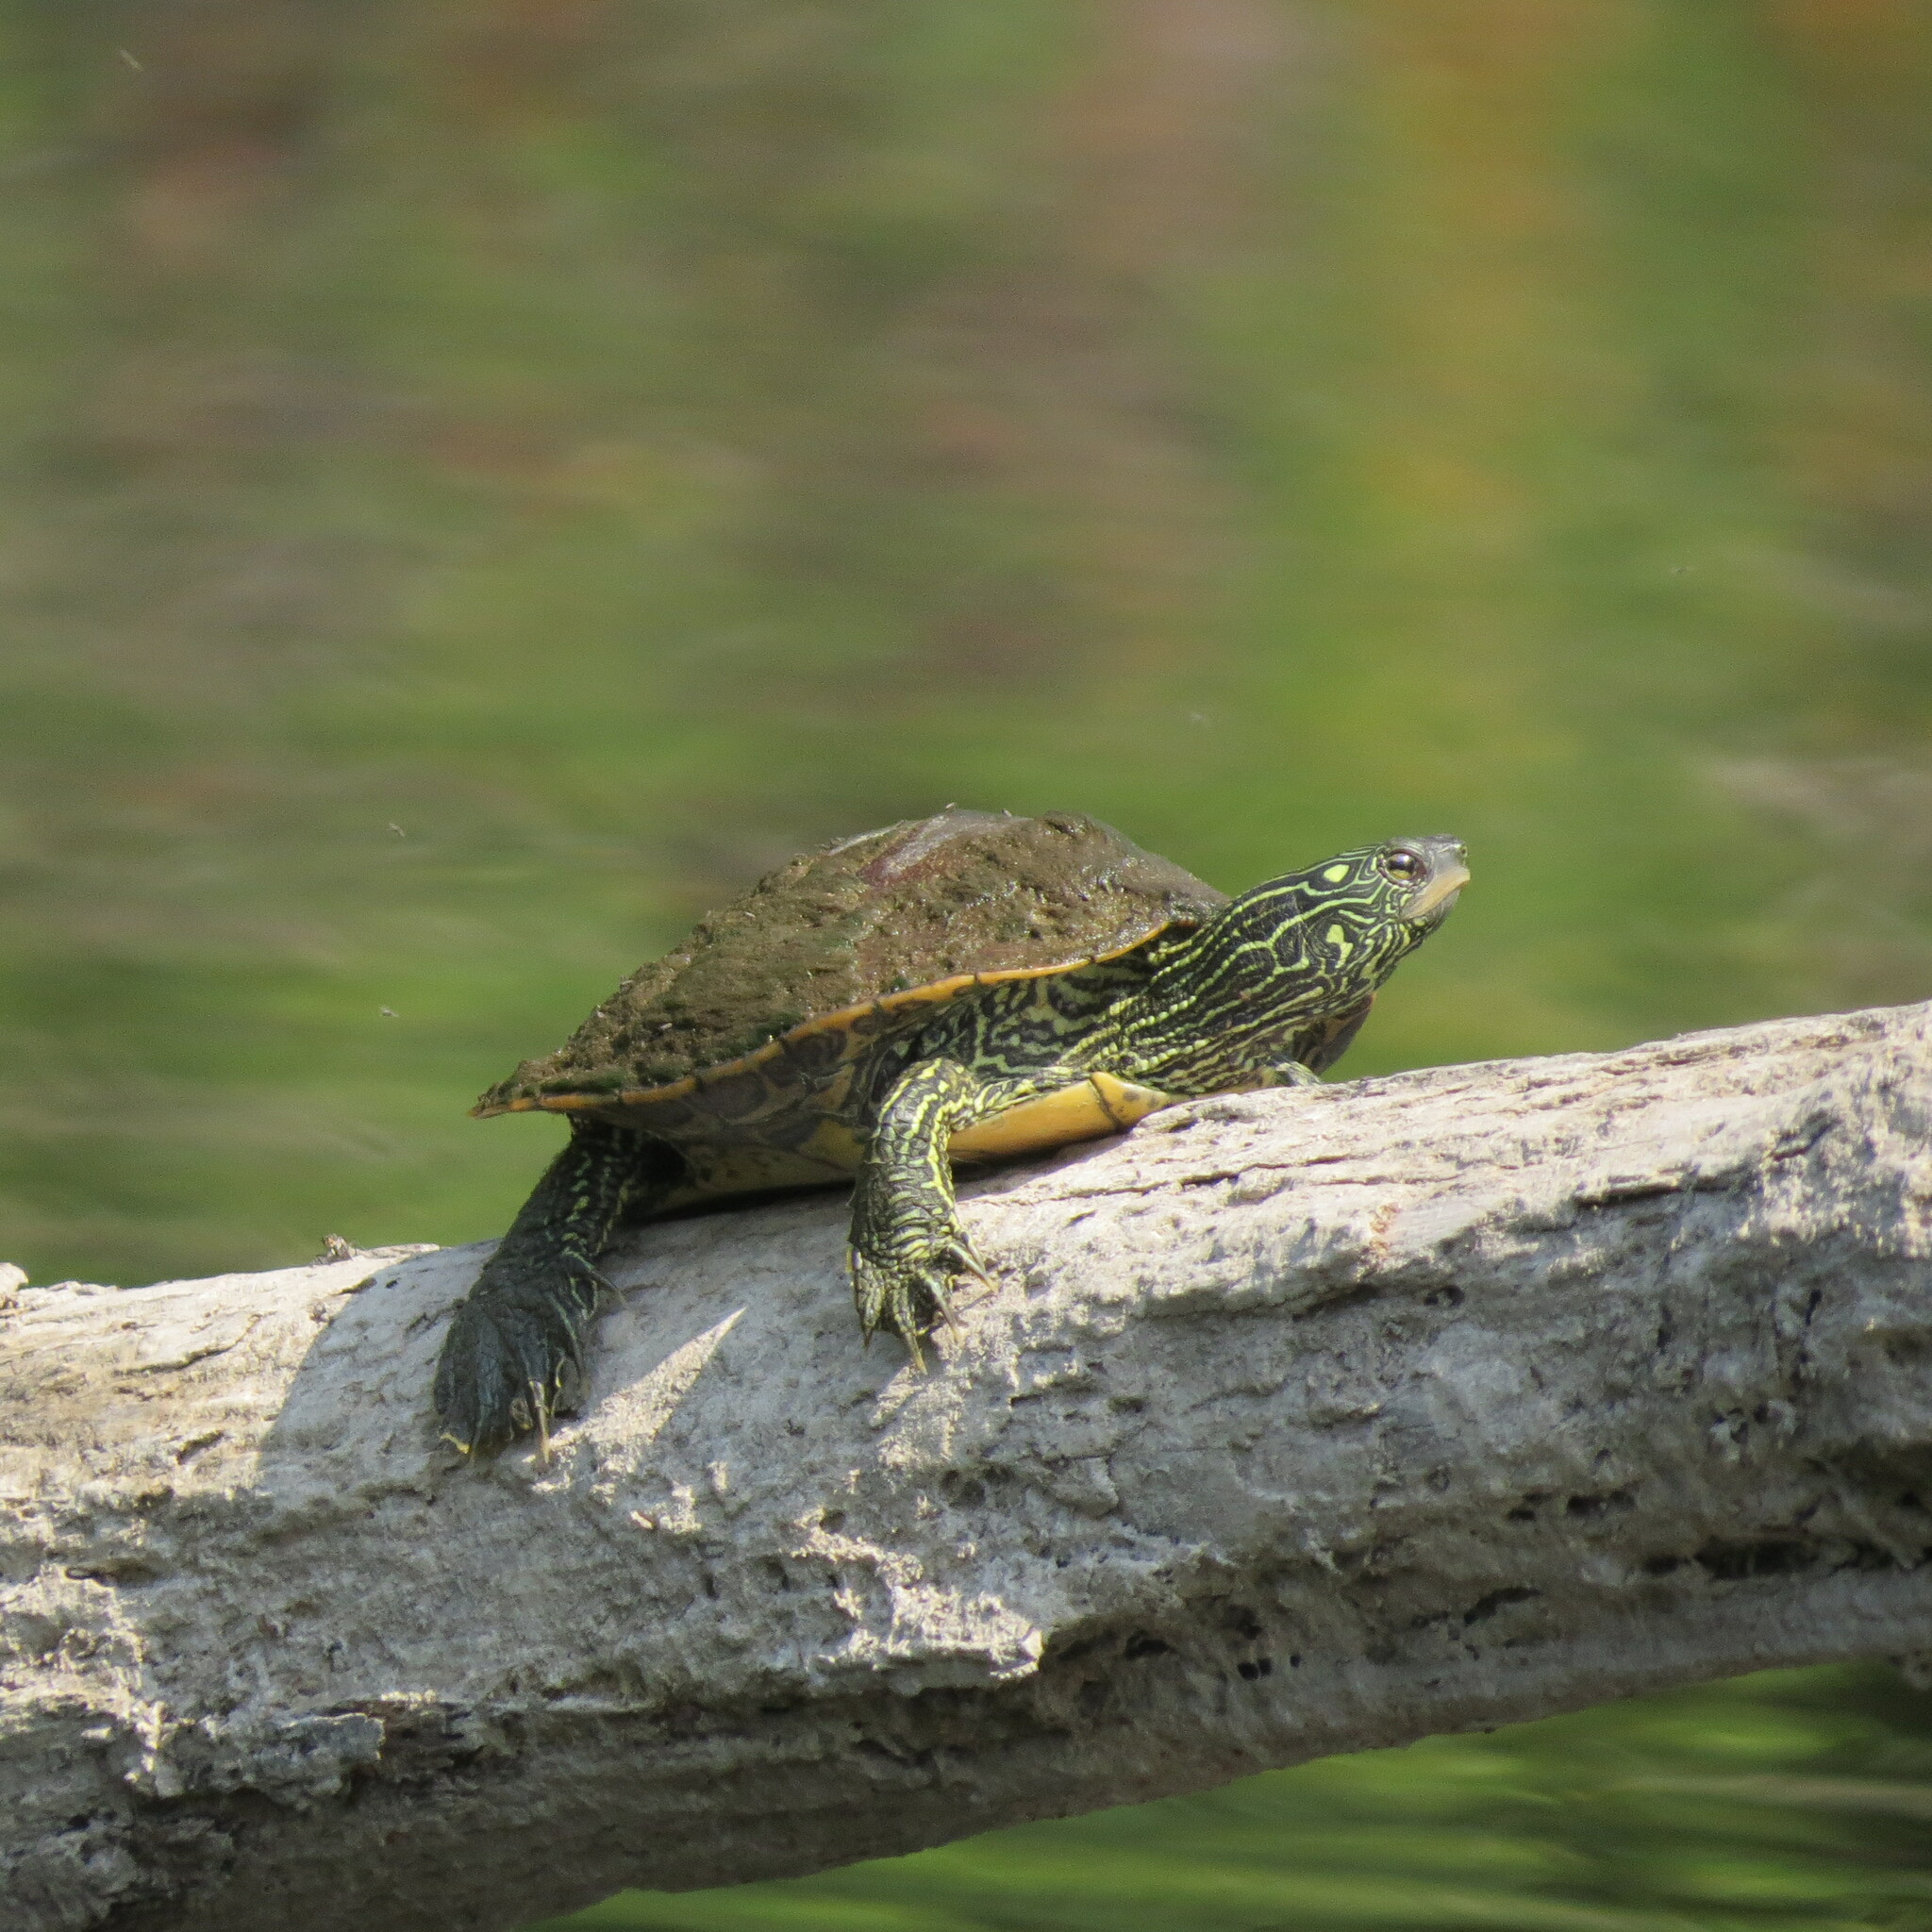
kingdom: Animalia
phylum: Chordata
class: Testudines
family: Emydidae
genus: Graptemys
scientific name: Graptemys geographica
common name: Common map turtle
